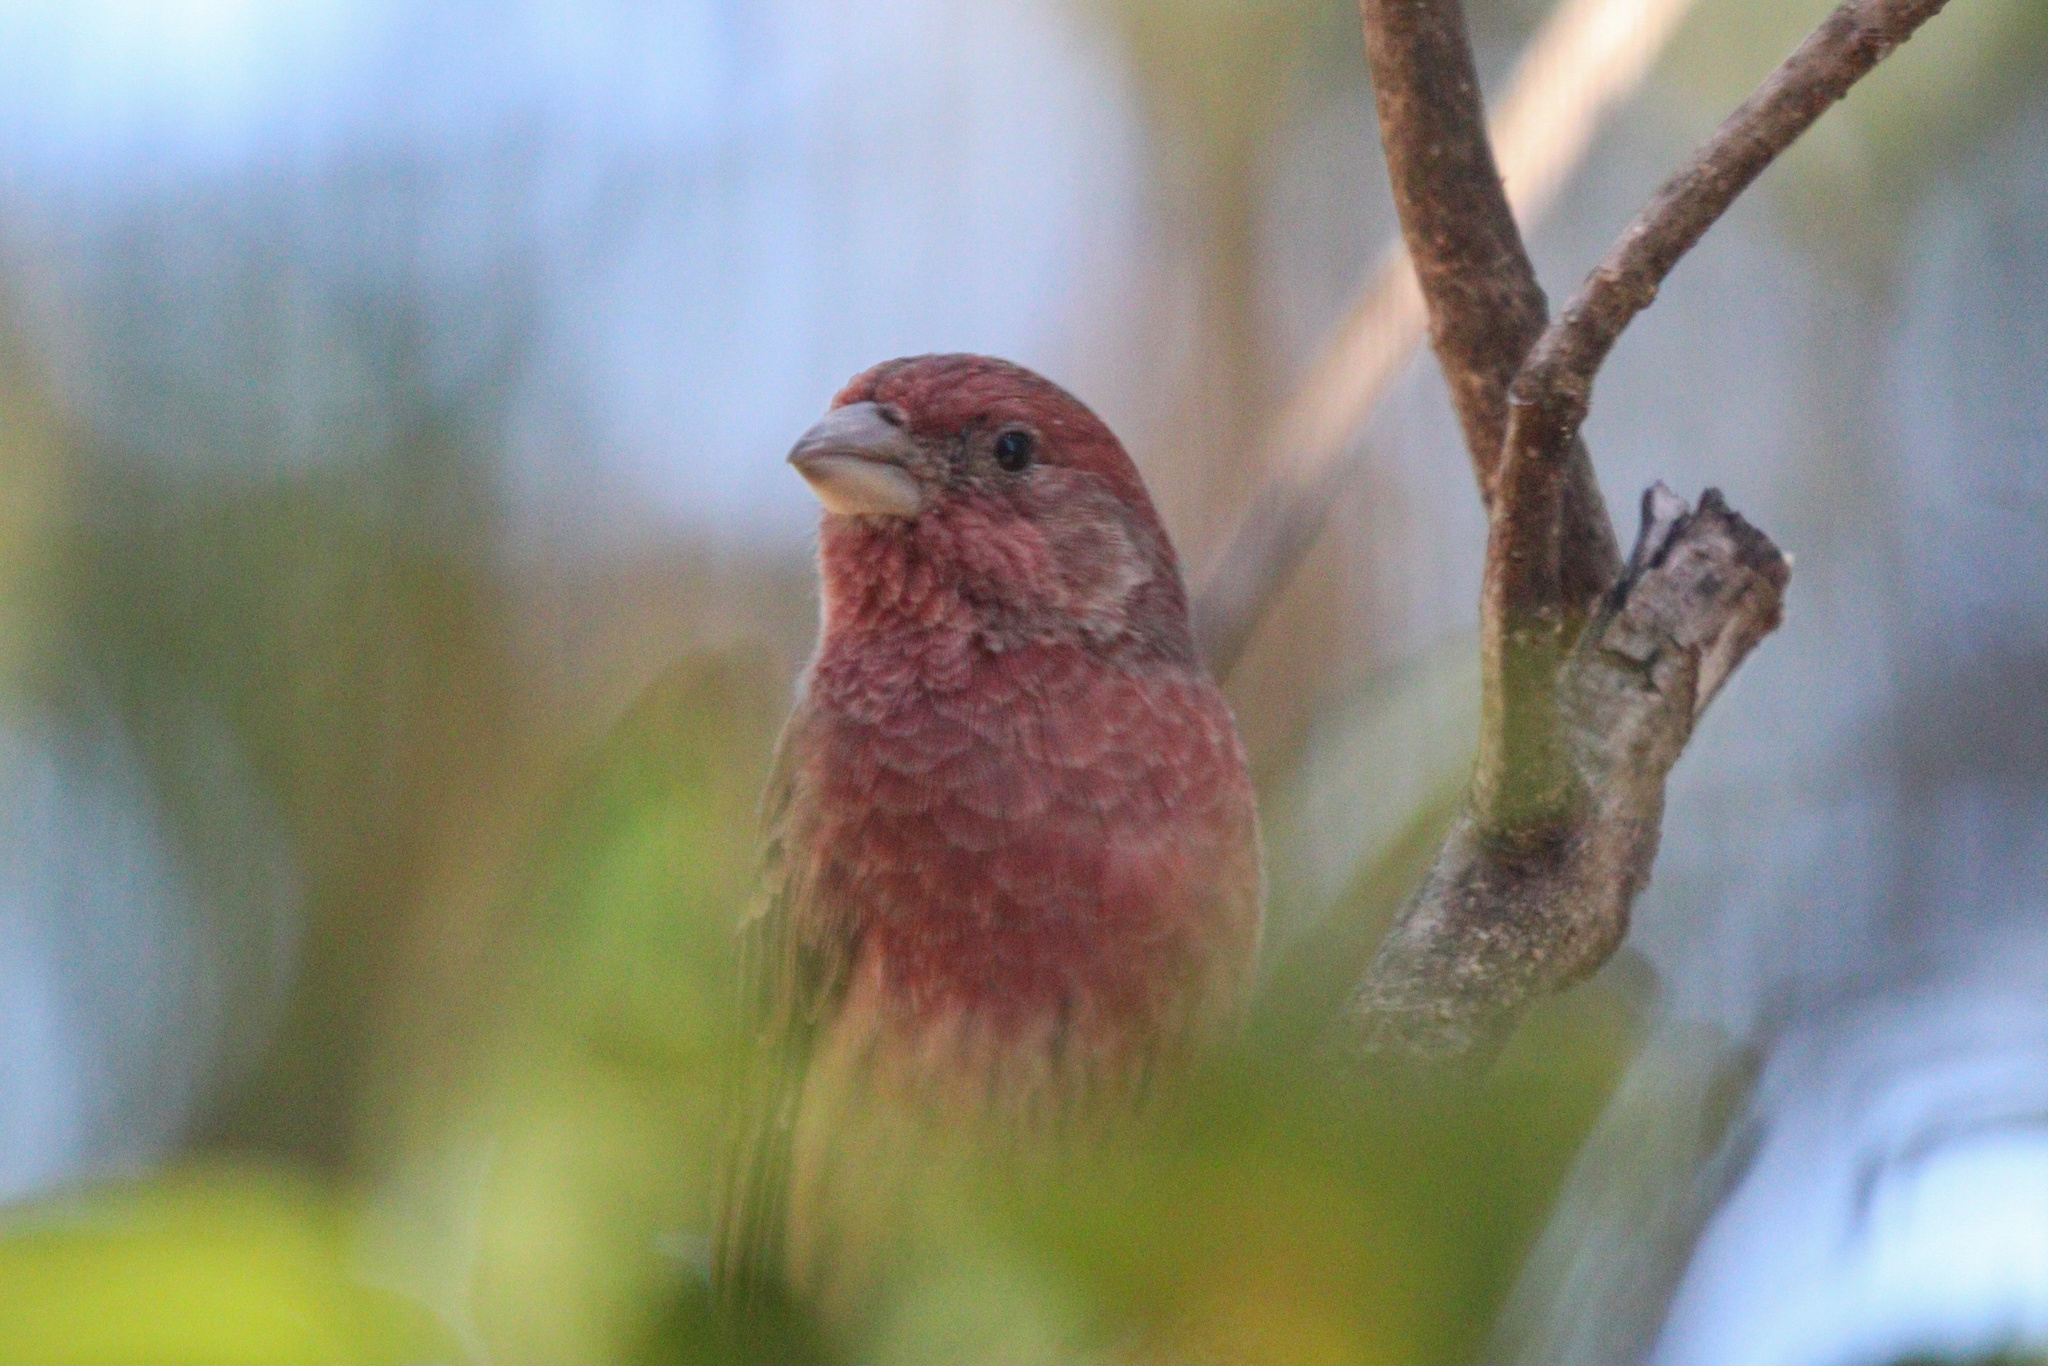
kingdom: Animalia
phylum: Chordata
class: Aves
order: Passeriformes
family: Fringillidae
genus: Haemorhous
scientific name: Haemorhous mexicanus
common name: House finch
